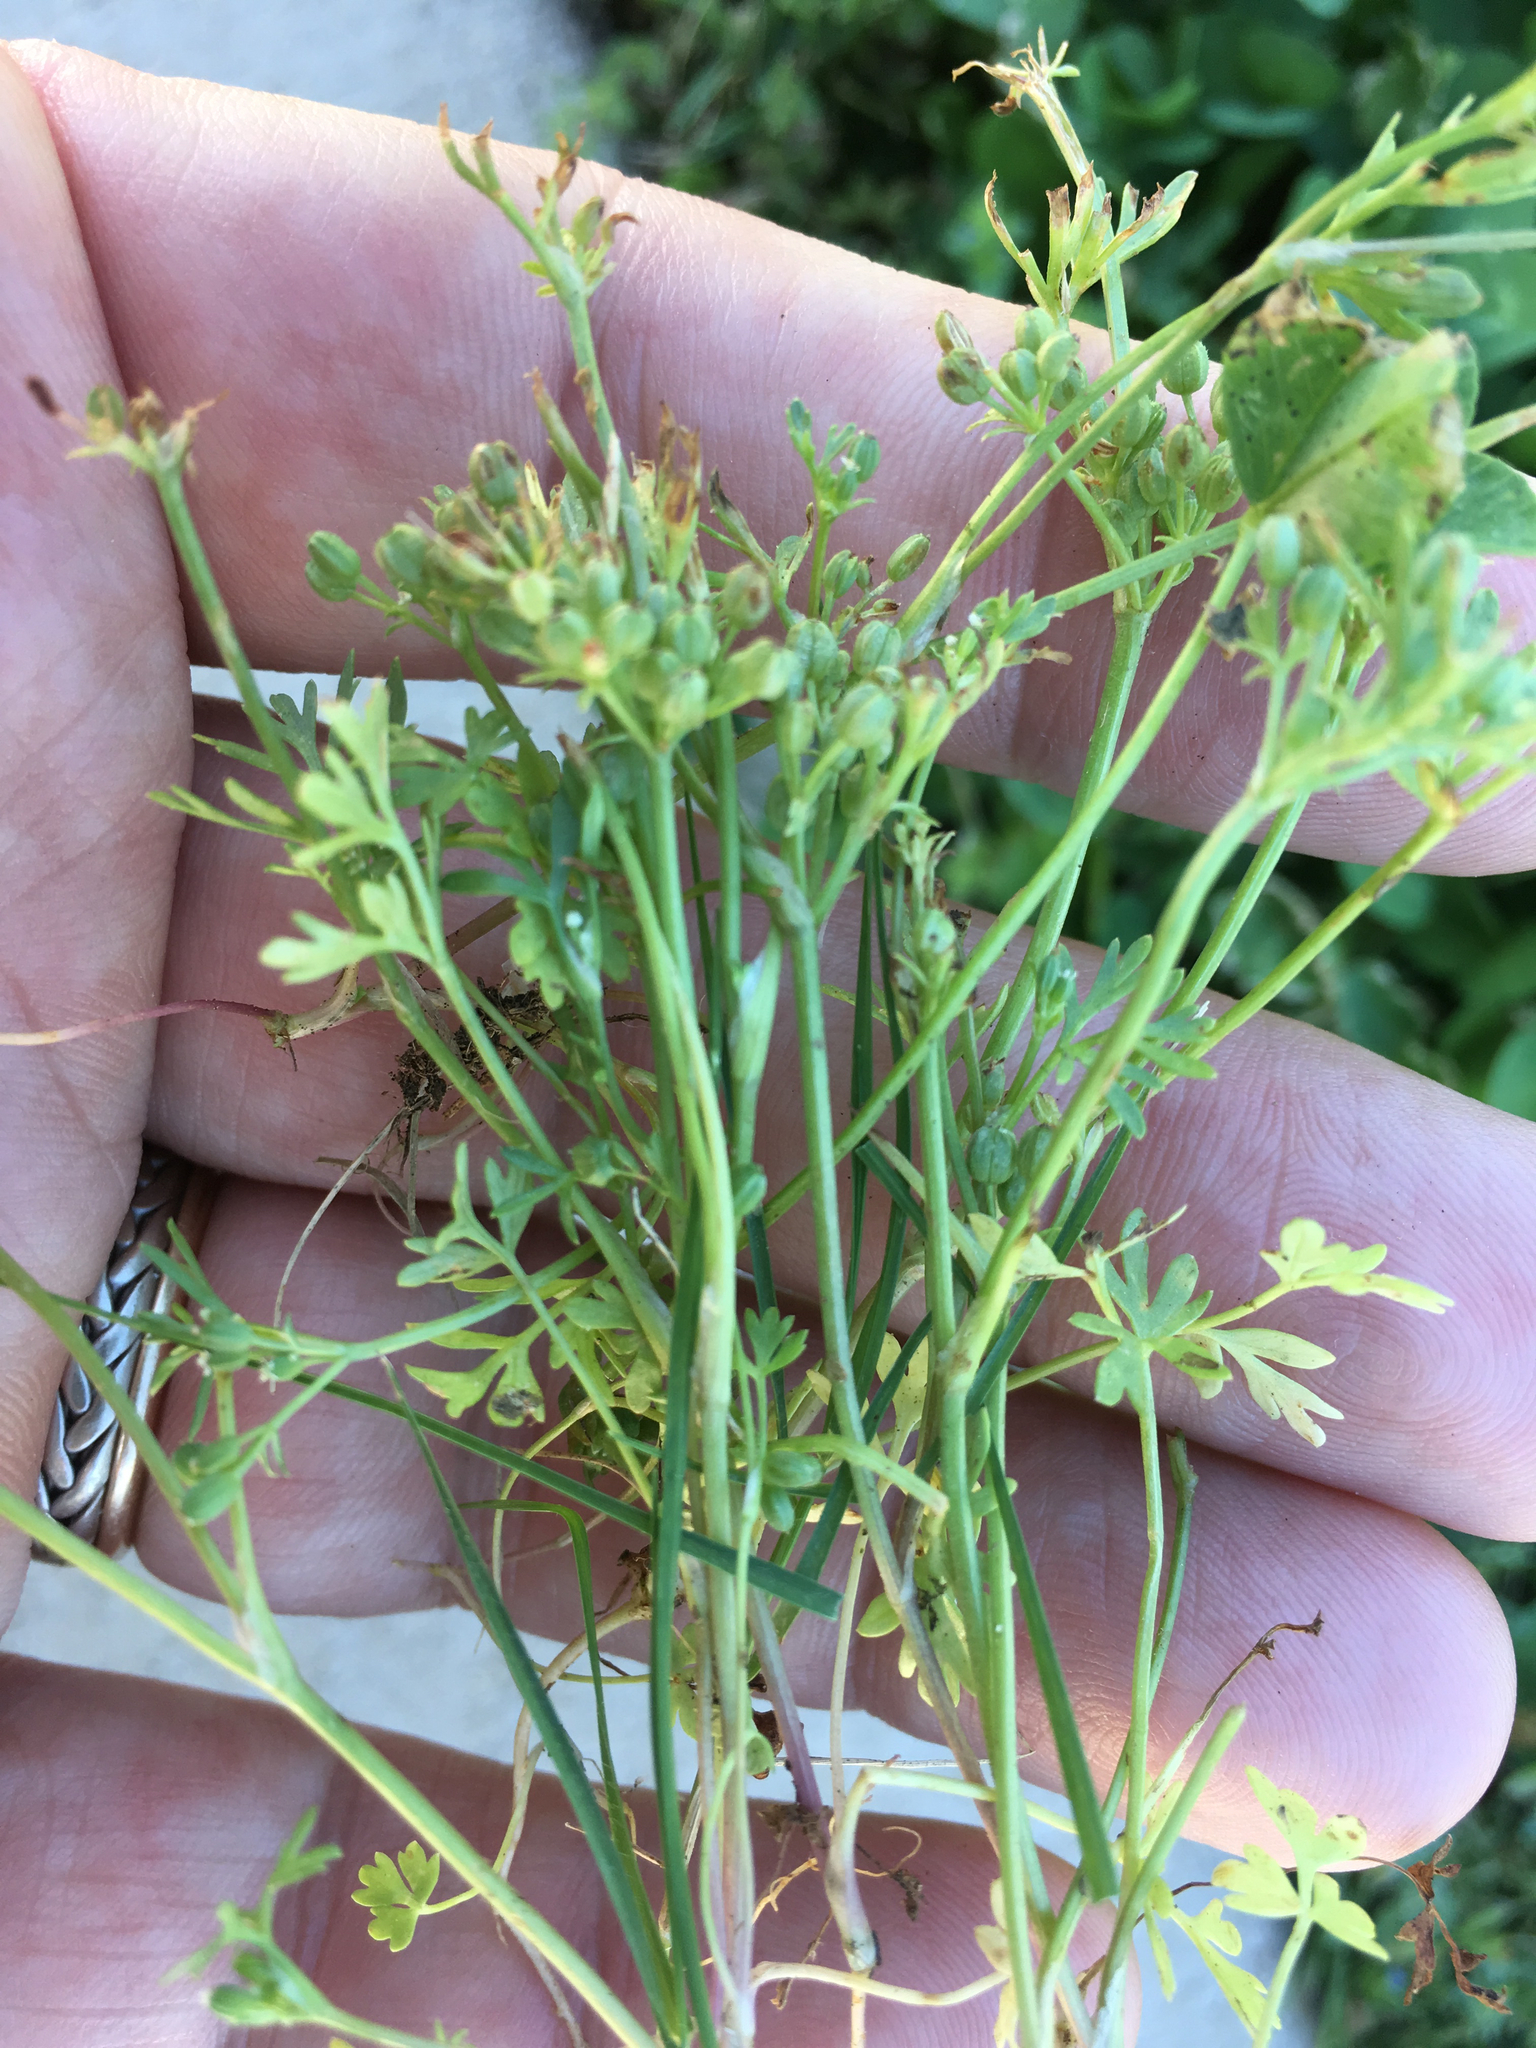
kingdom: Plantae
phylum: Tracheophyta
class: Magnoliopsida
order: Apiales
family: Apiaceae
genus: Ammoselinum
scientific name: Ammoselinum butleri
